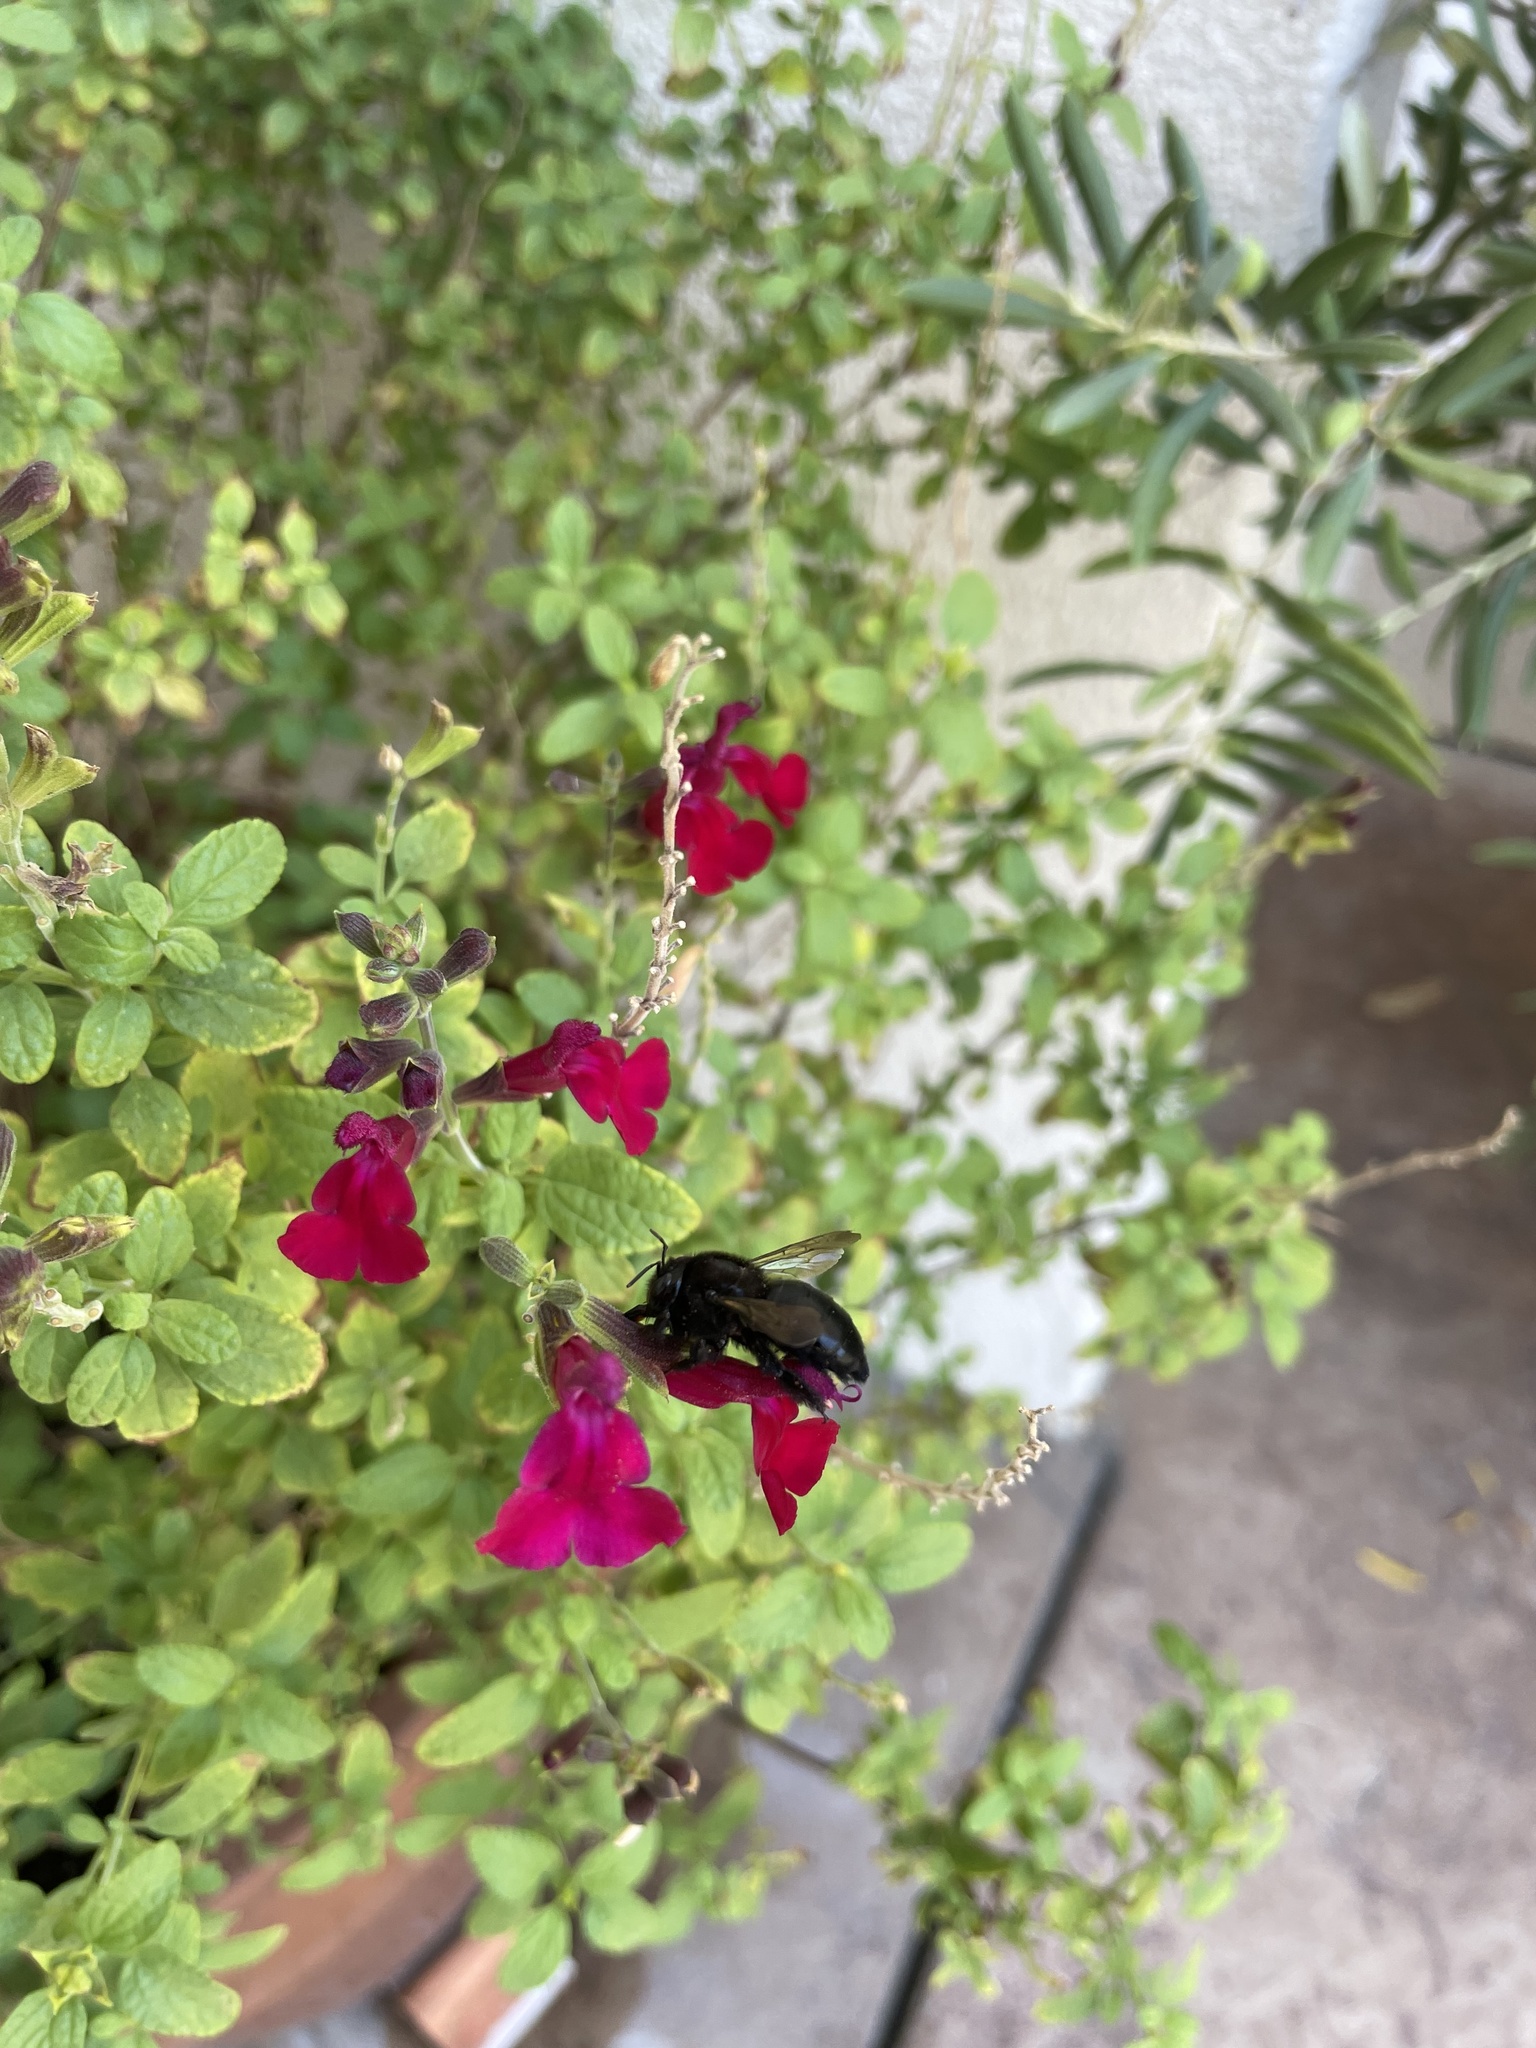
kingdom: Animalia
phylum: Arthropoda
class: Insecta
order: Hymenoptera
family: Apidae
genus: Xylocopa
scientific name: Xylocopa tabaniformis
